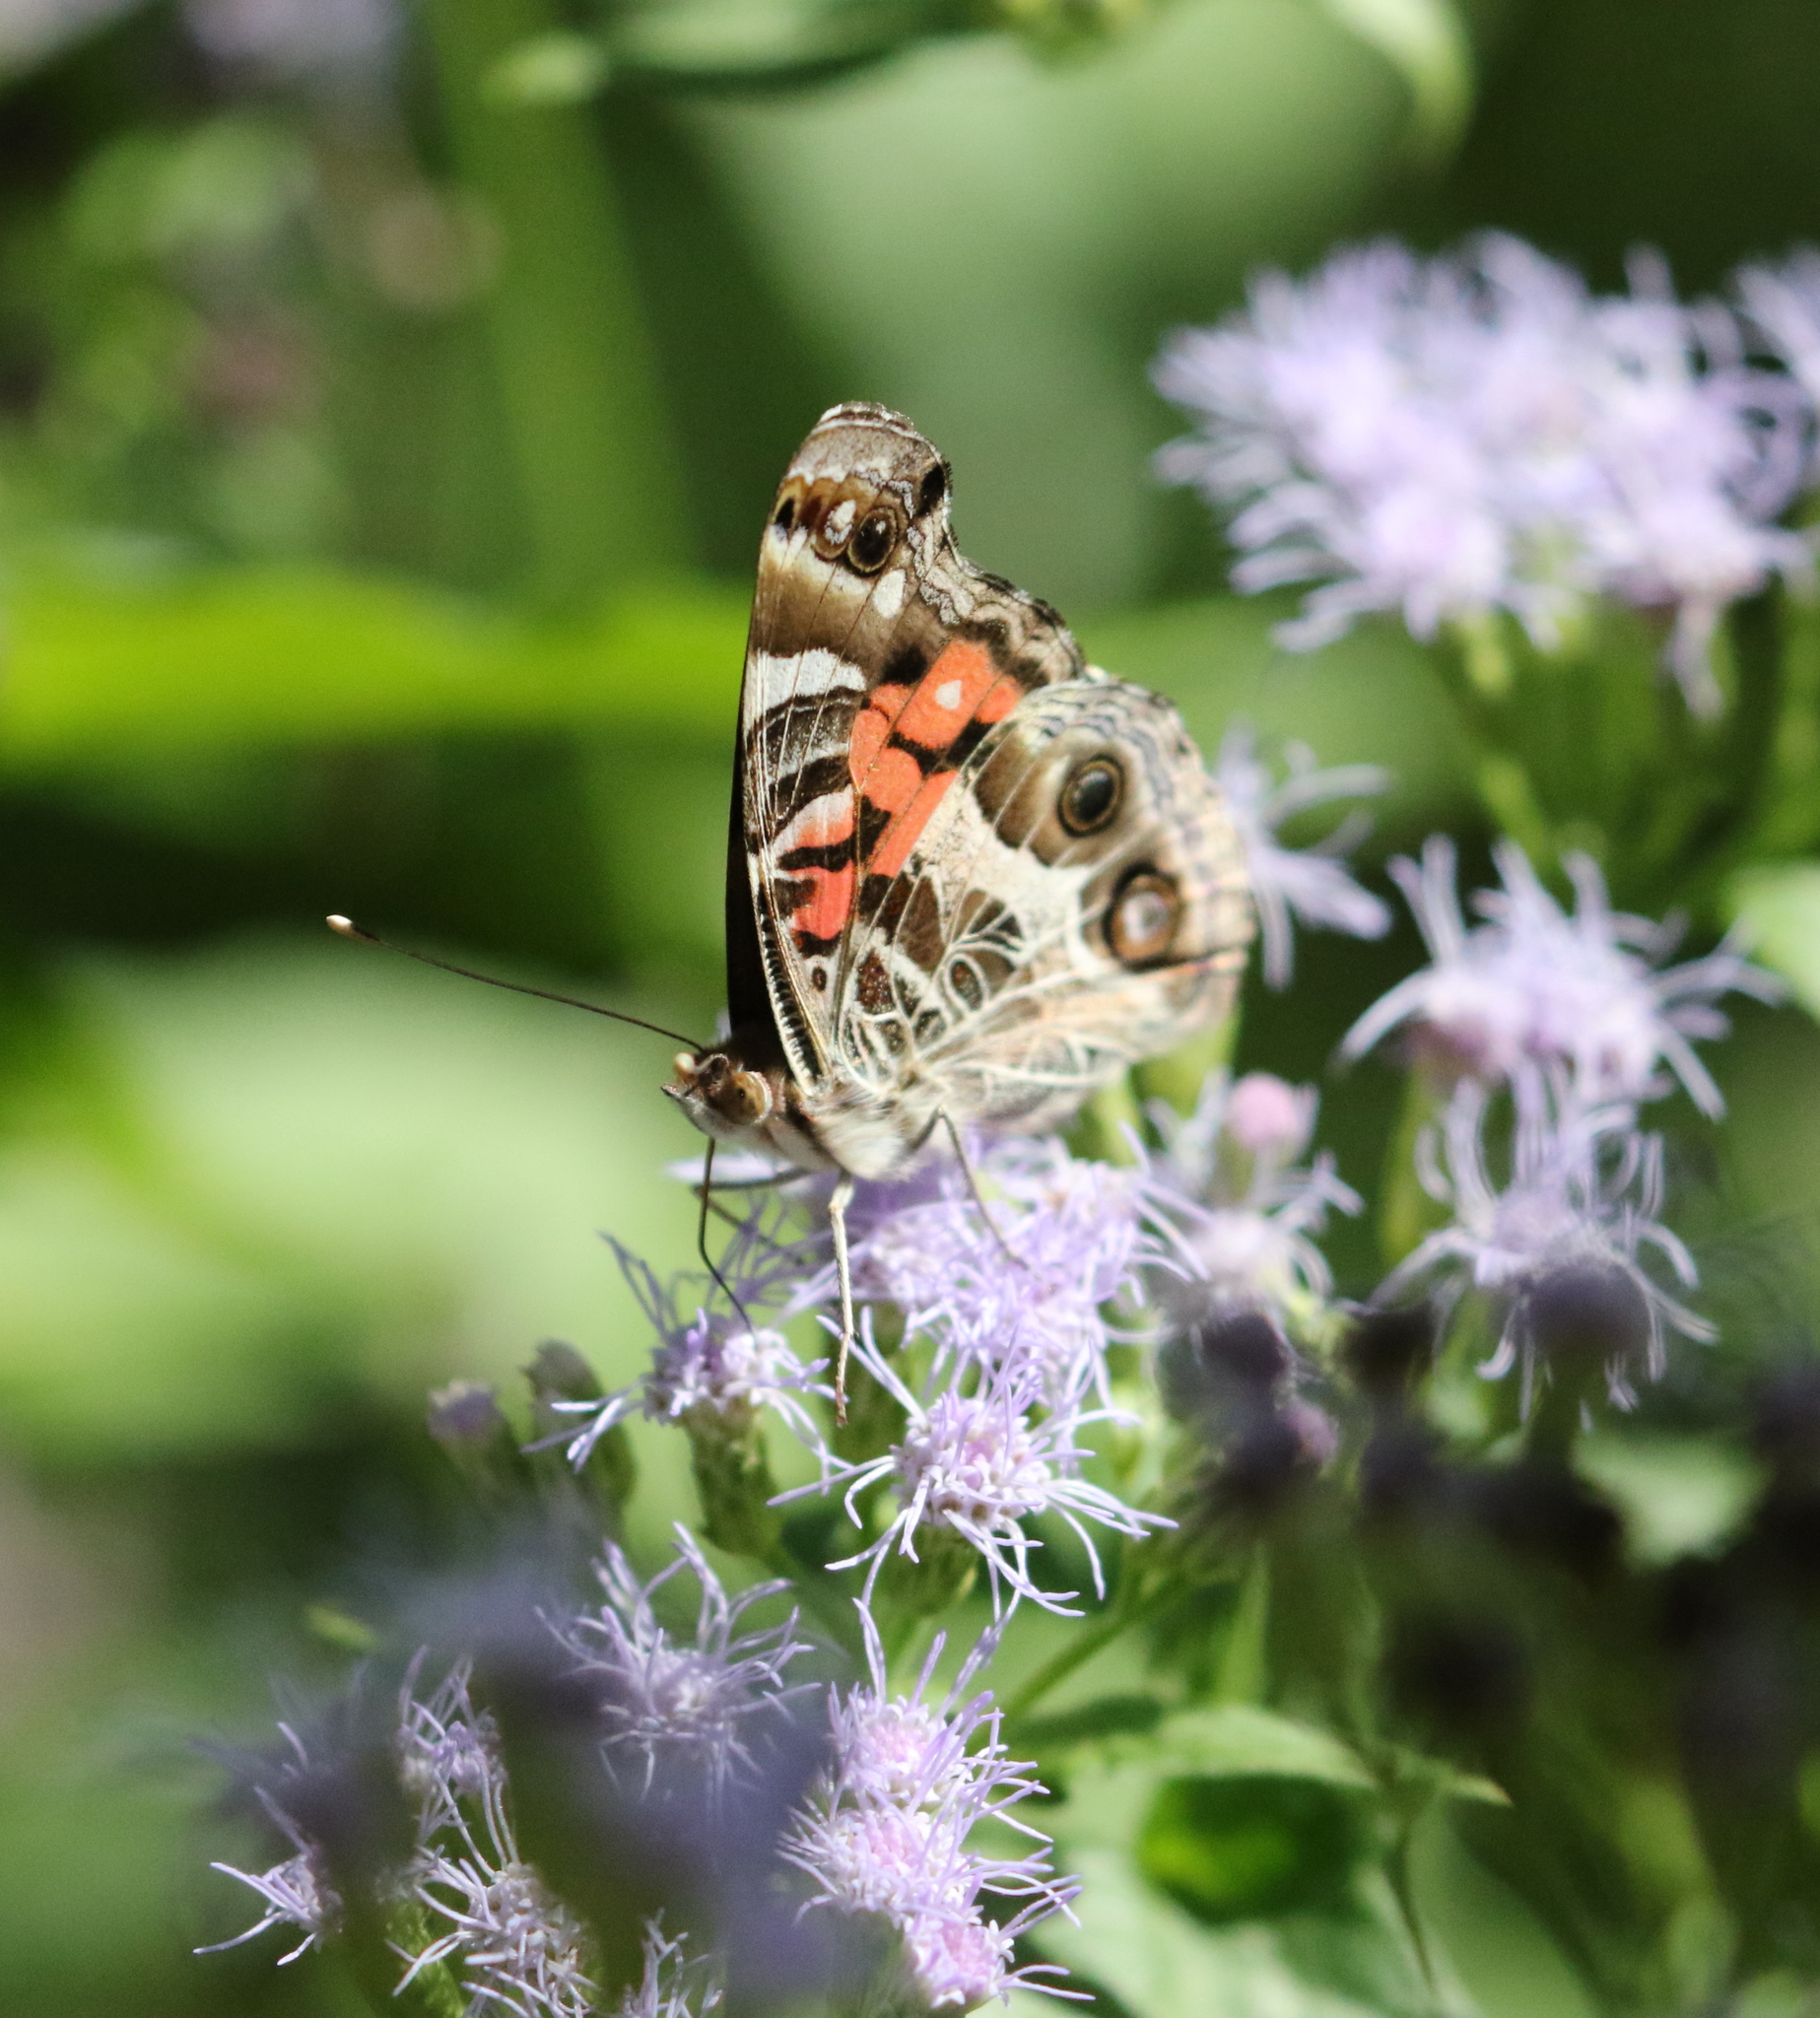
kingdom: Animalia
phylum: Arthropoda
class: Insecta
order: Lepidoptera
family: Nymphalidae
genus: Vanessa
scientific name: Vanessa virginiensis
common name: American lady
